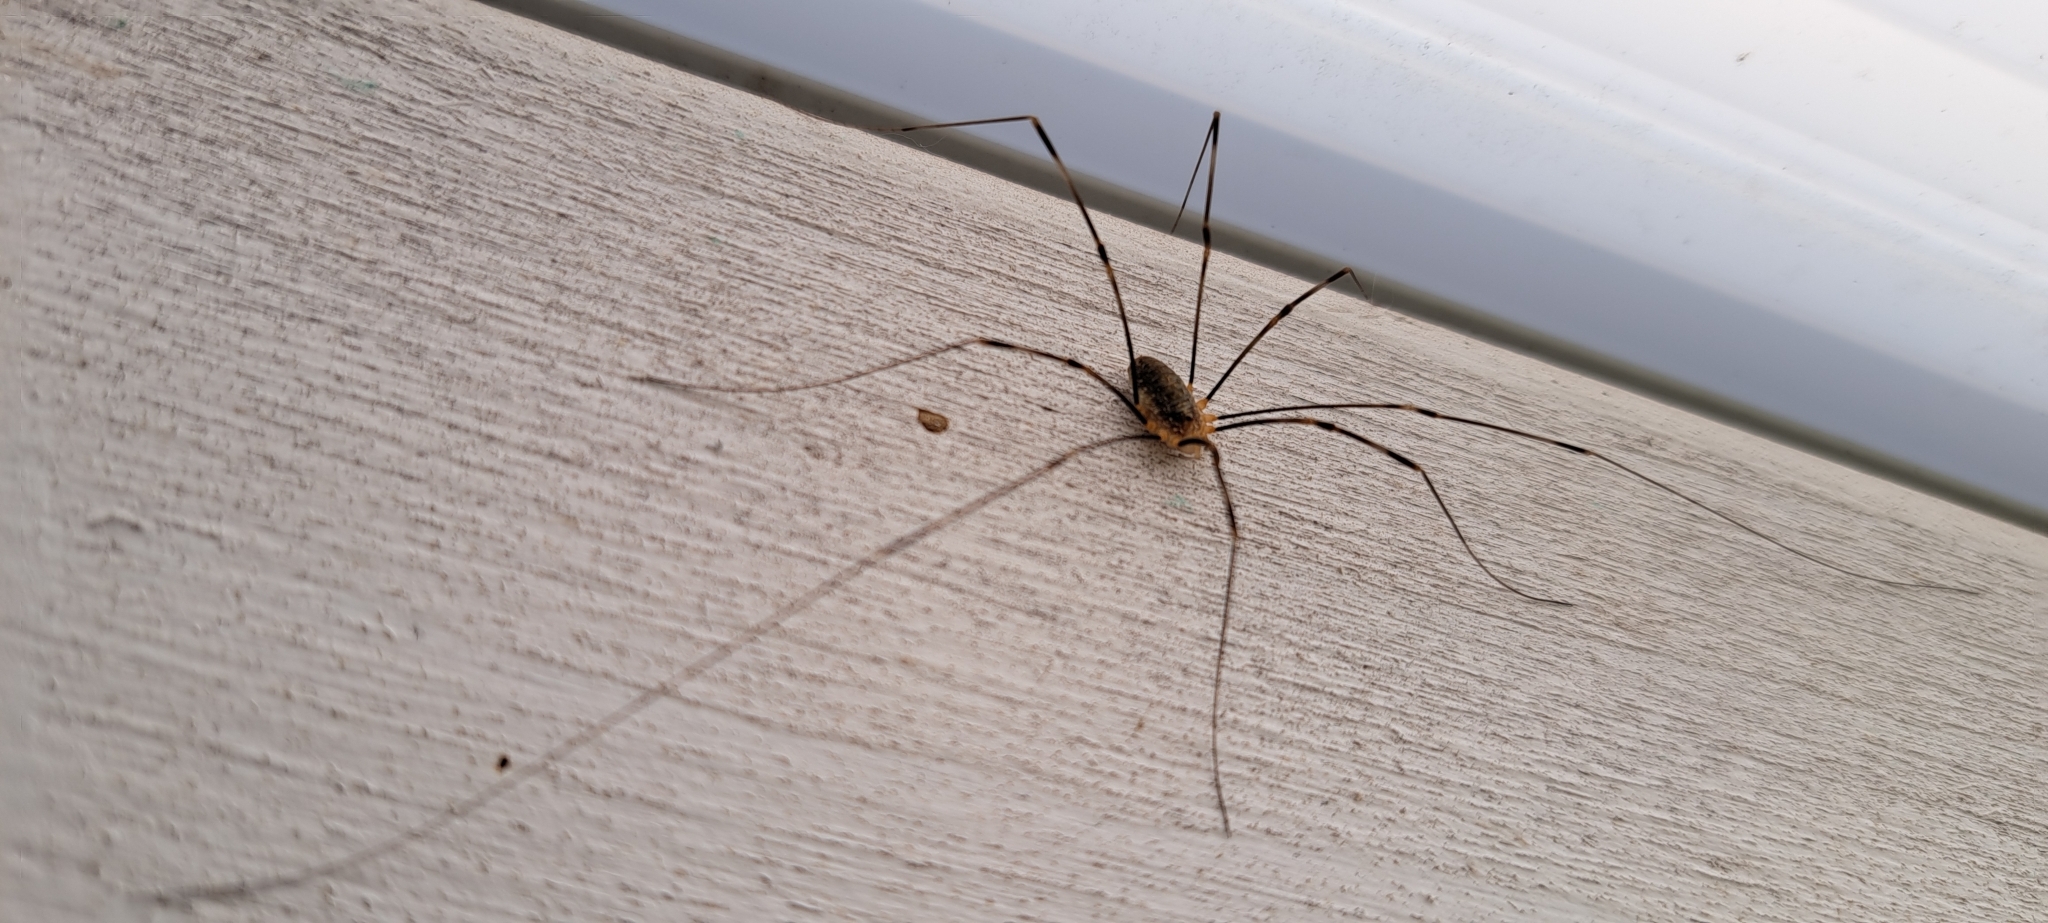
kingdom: Animalia
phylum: Arthropoda
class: Arachnida
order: Opiliones
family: Phalangiidae
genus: Opilio
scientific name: Opilio canestrinii
